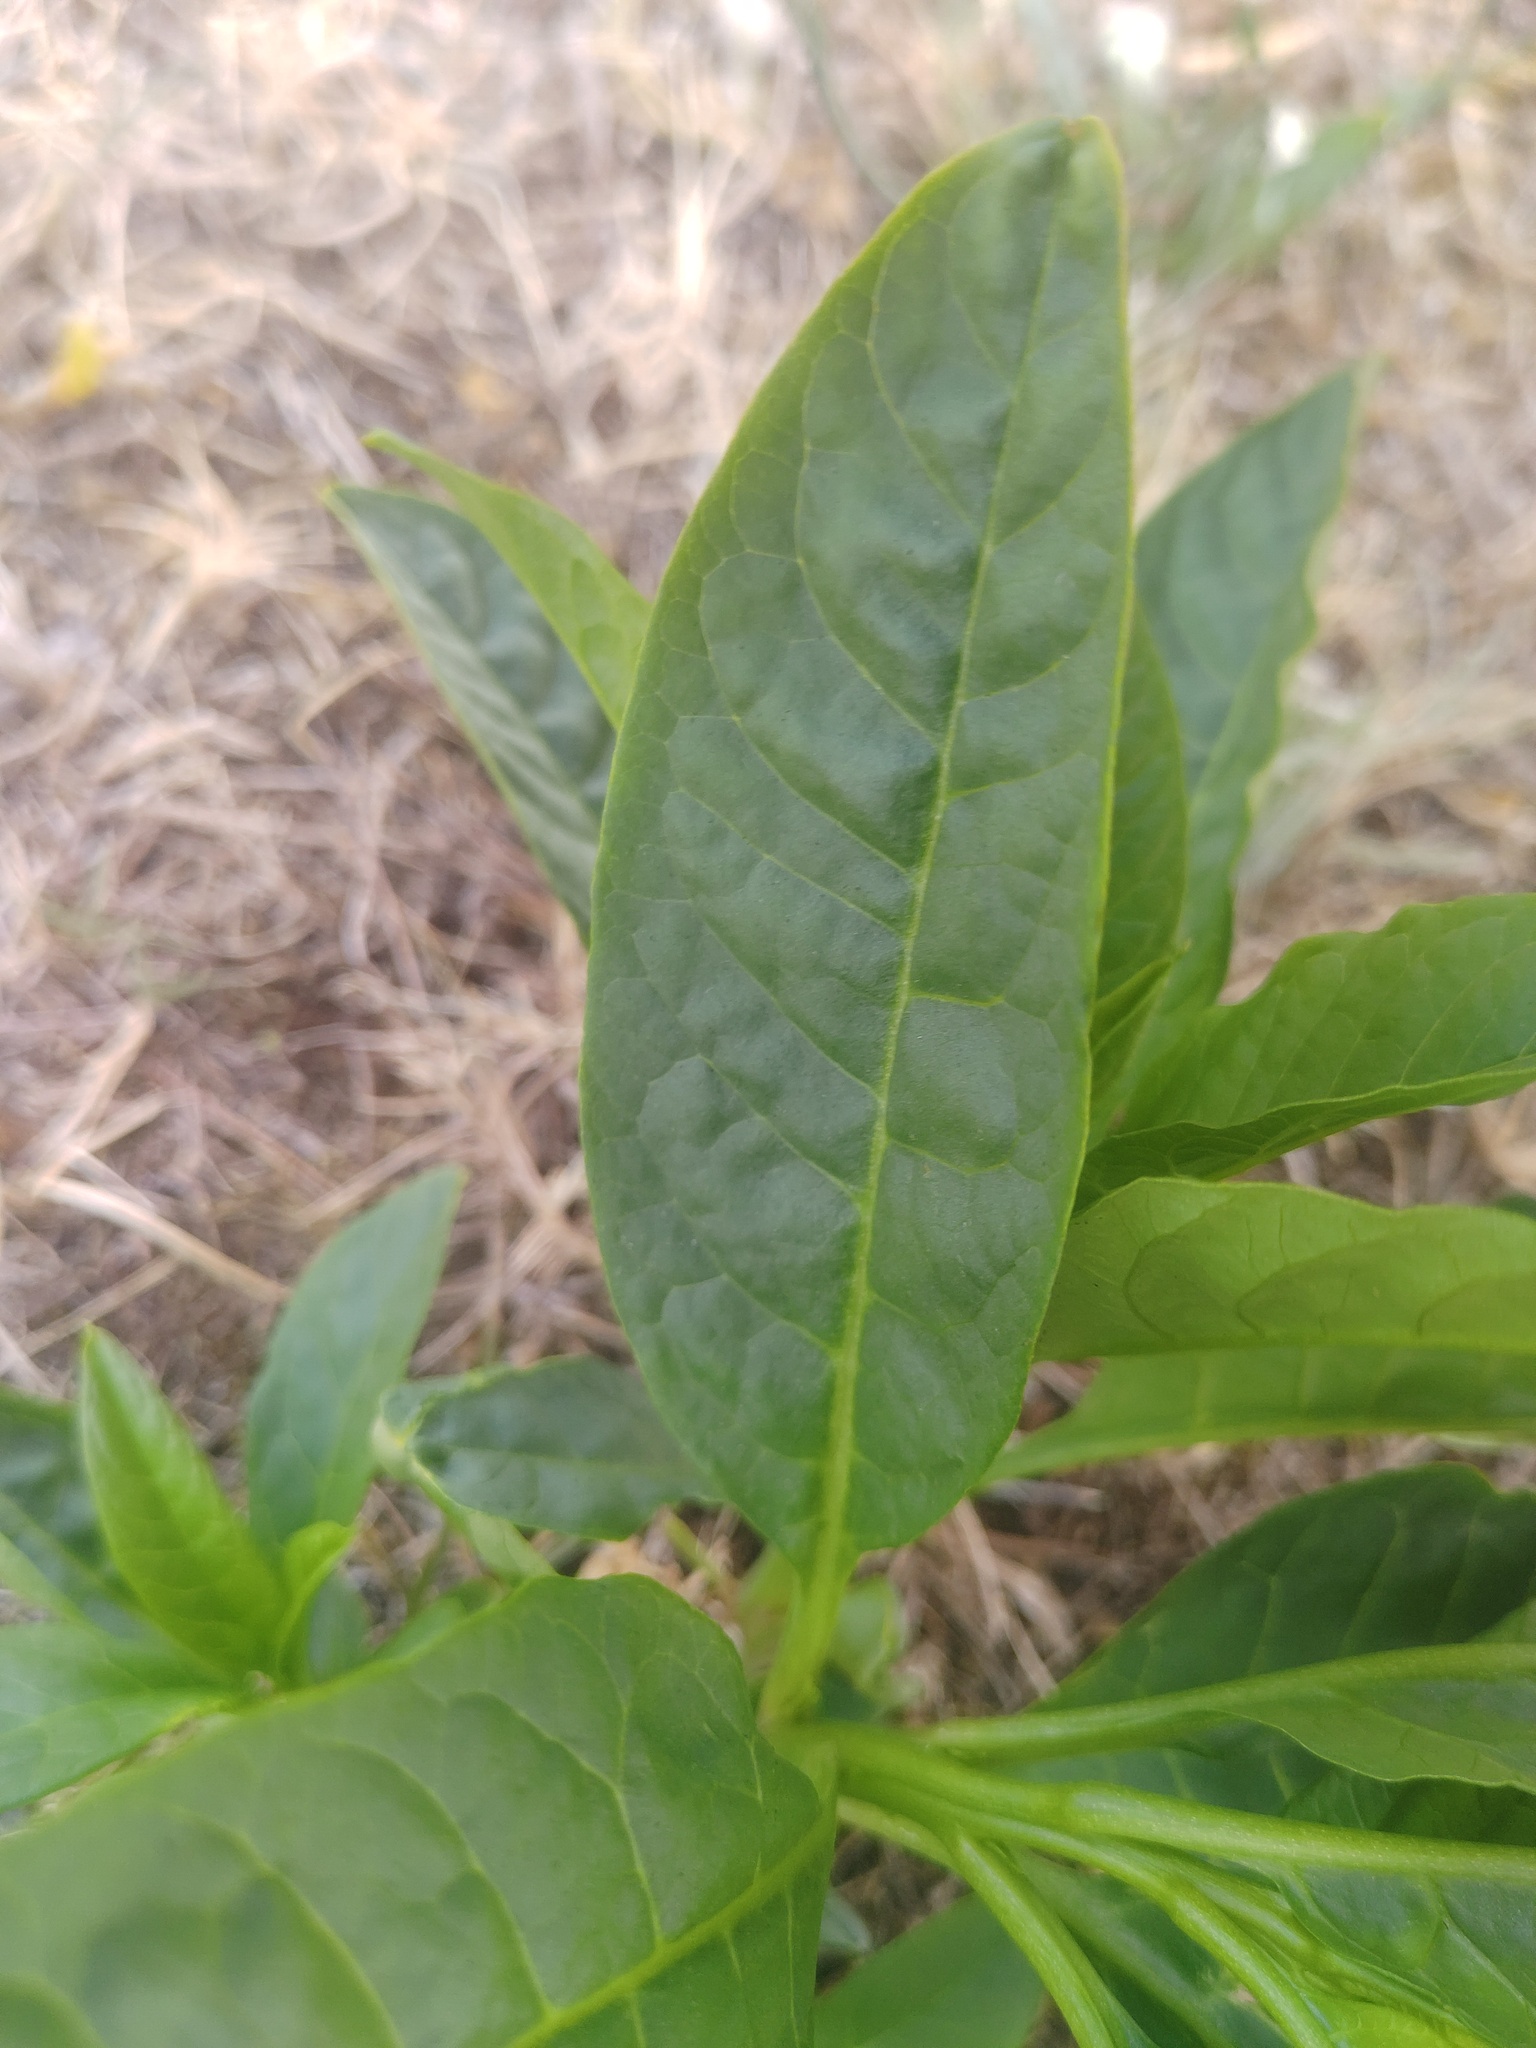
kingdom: Plantae
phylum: Tracheophyta
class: Magnoliopsida
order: Caryophyllales
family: Phytolaccaceae
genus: Phytolacca
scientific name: Phytolacca americana
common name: American pokeweed
